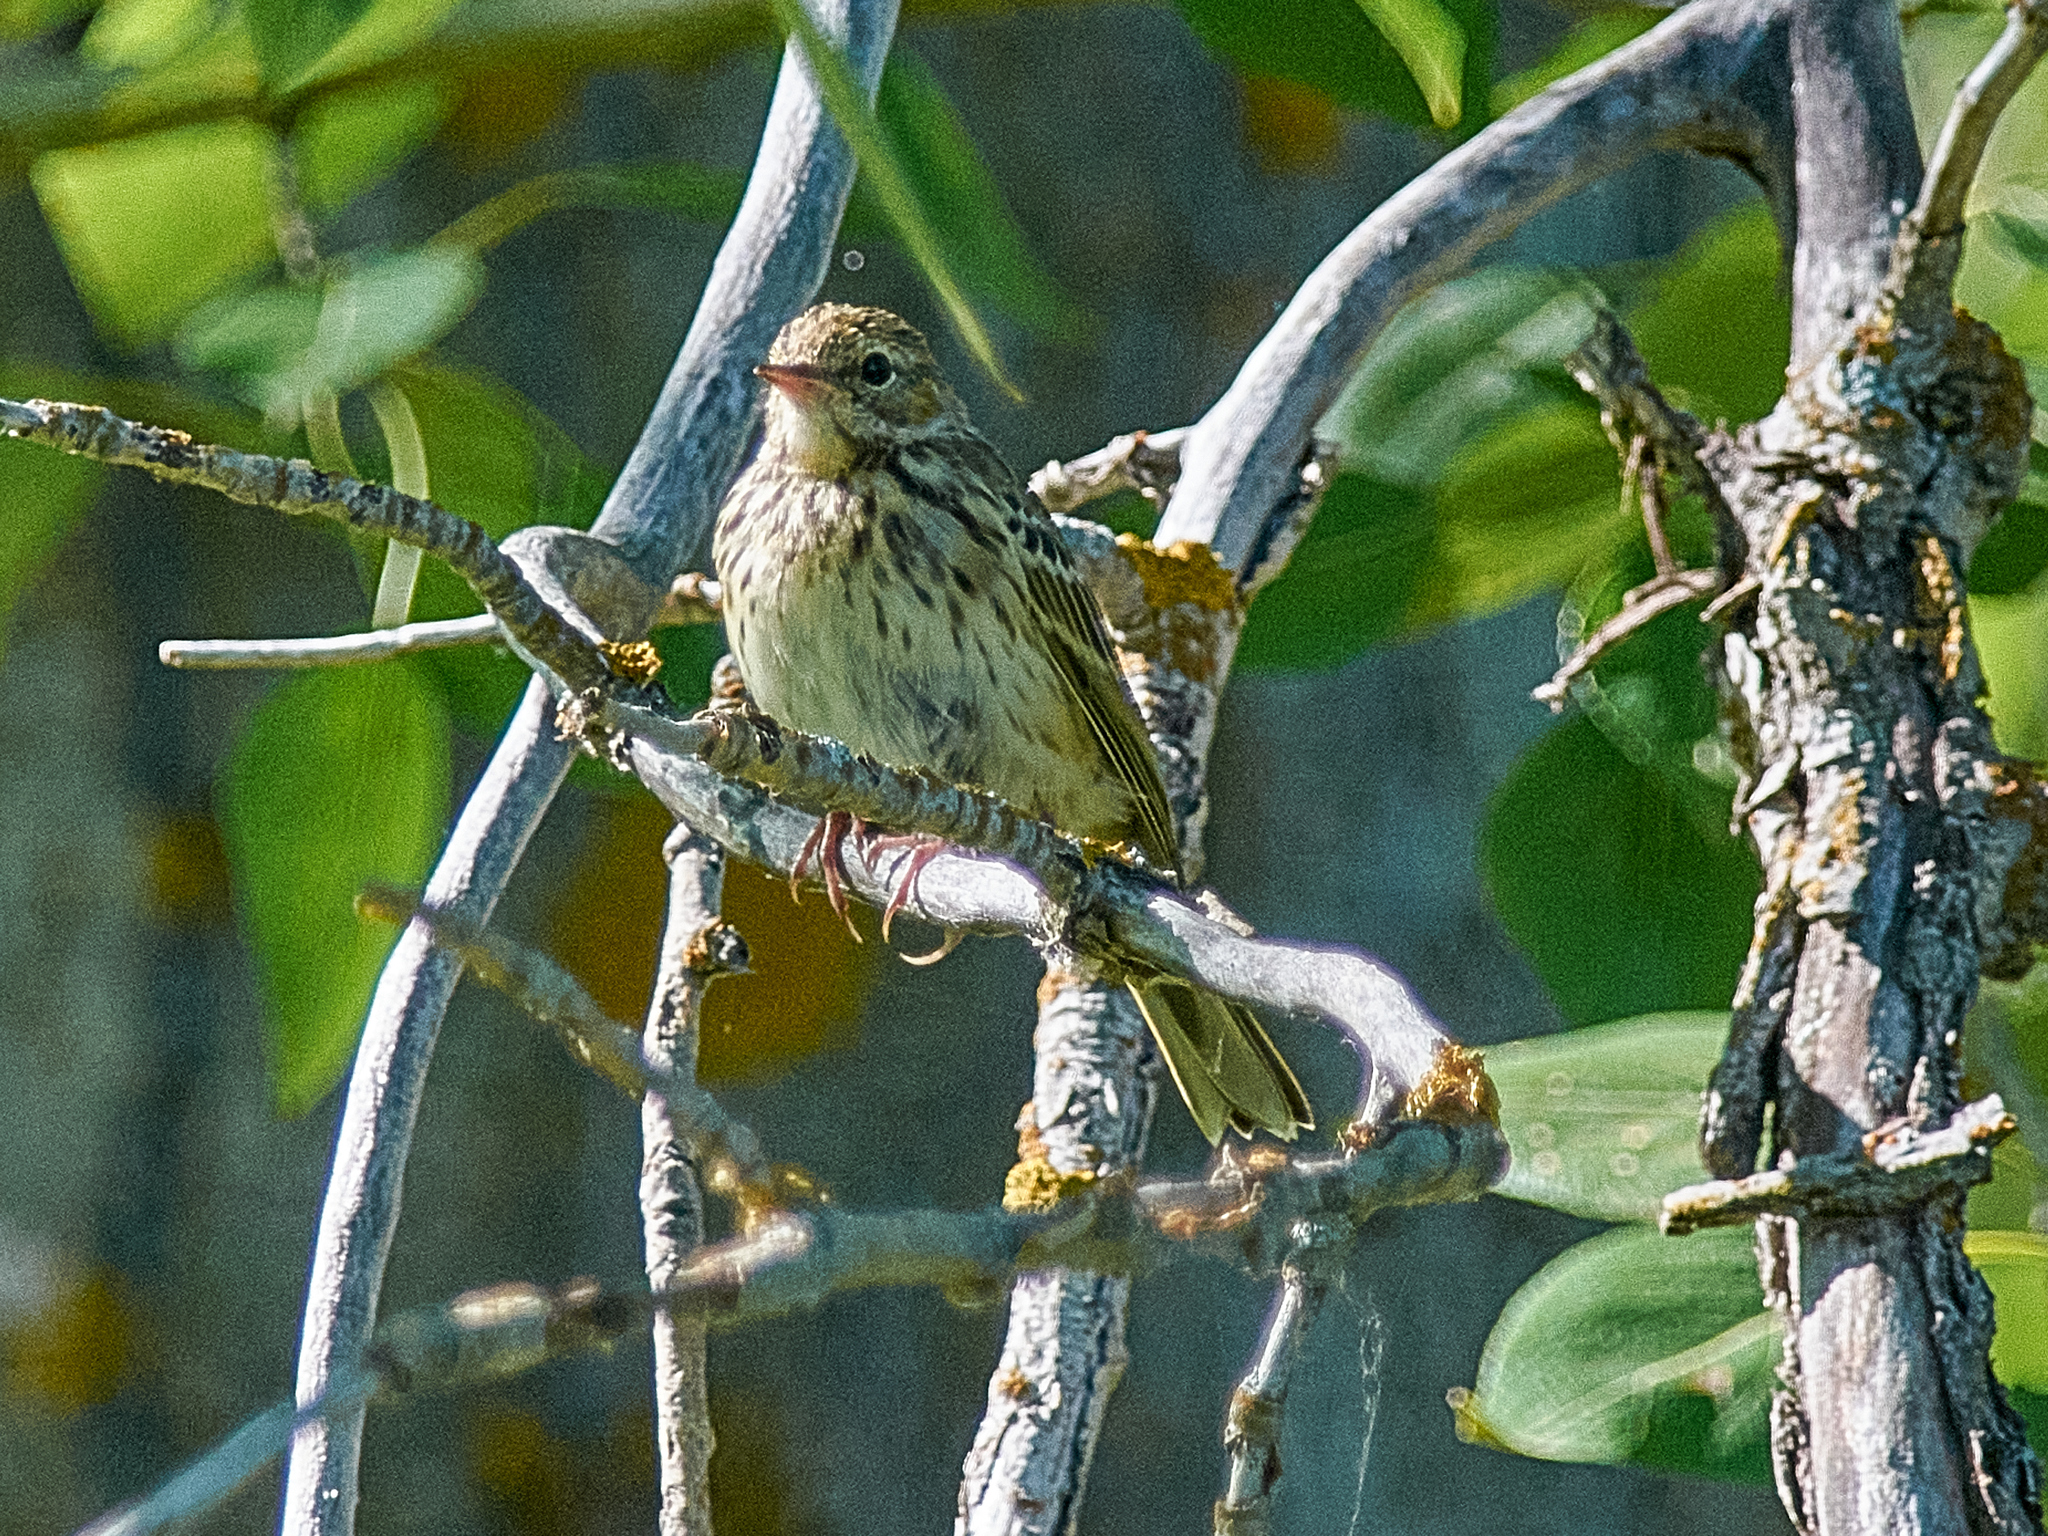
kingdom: Animalia
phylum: Chordata
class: Aves
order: Passeriformes
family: Motacillidae
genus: Anthus
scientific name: Anthus trivialis
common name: Tree pipit
